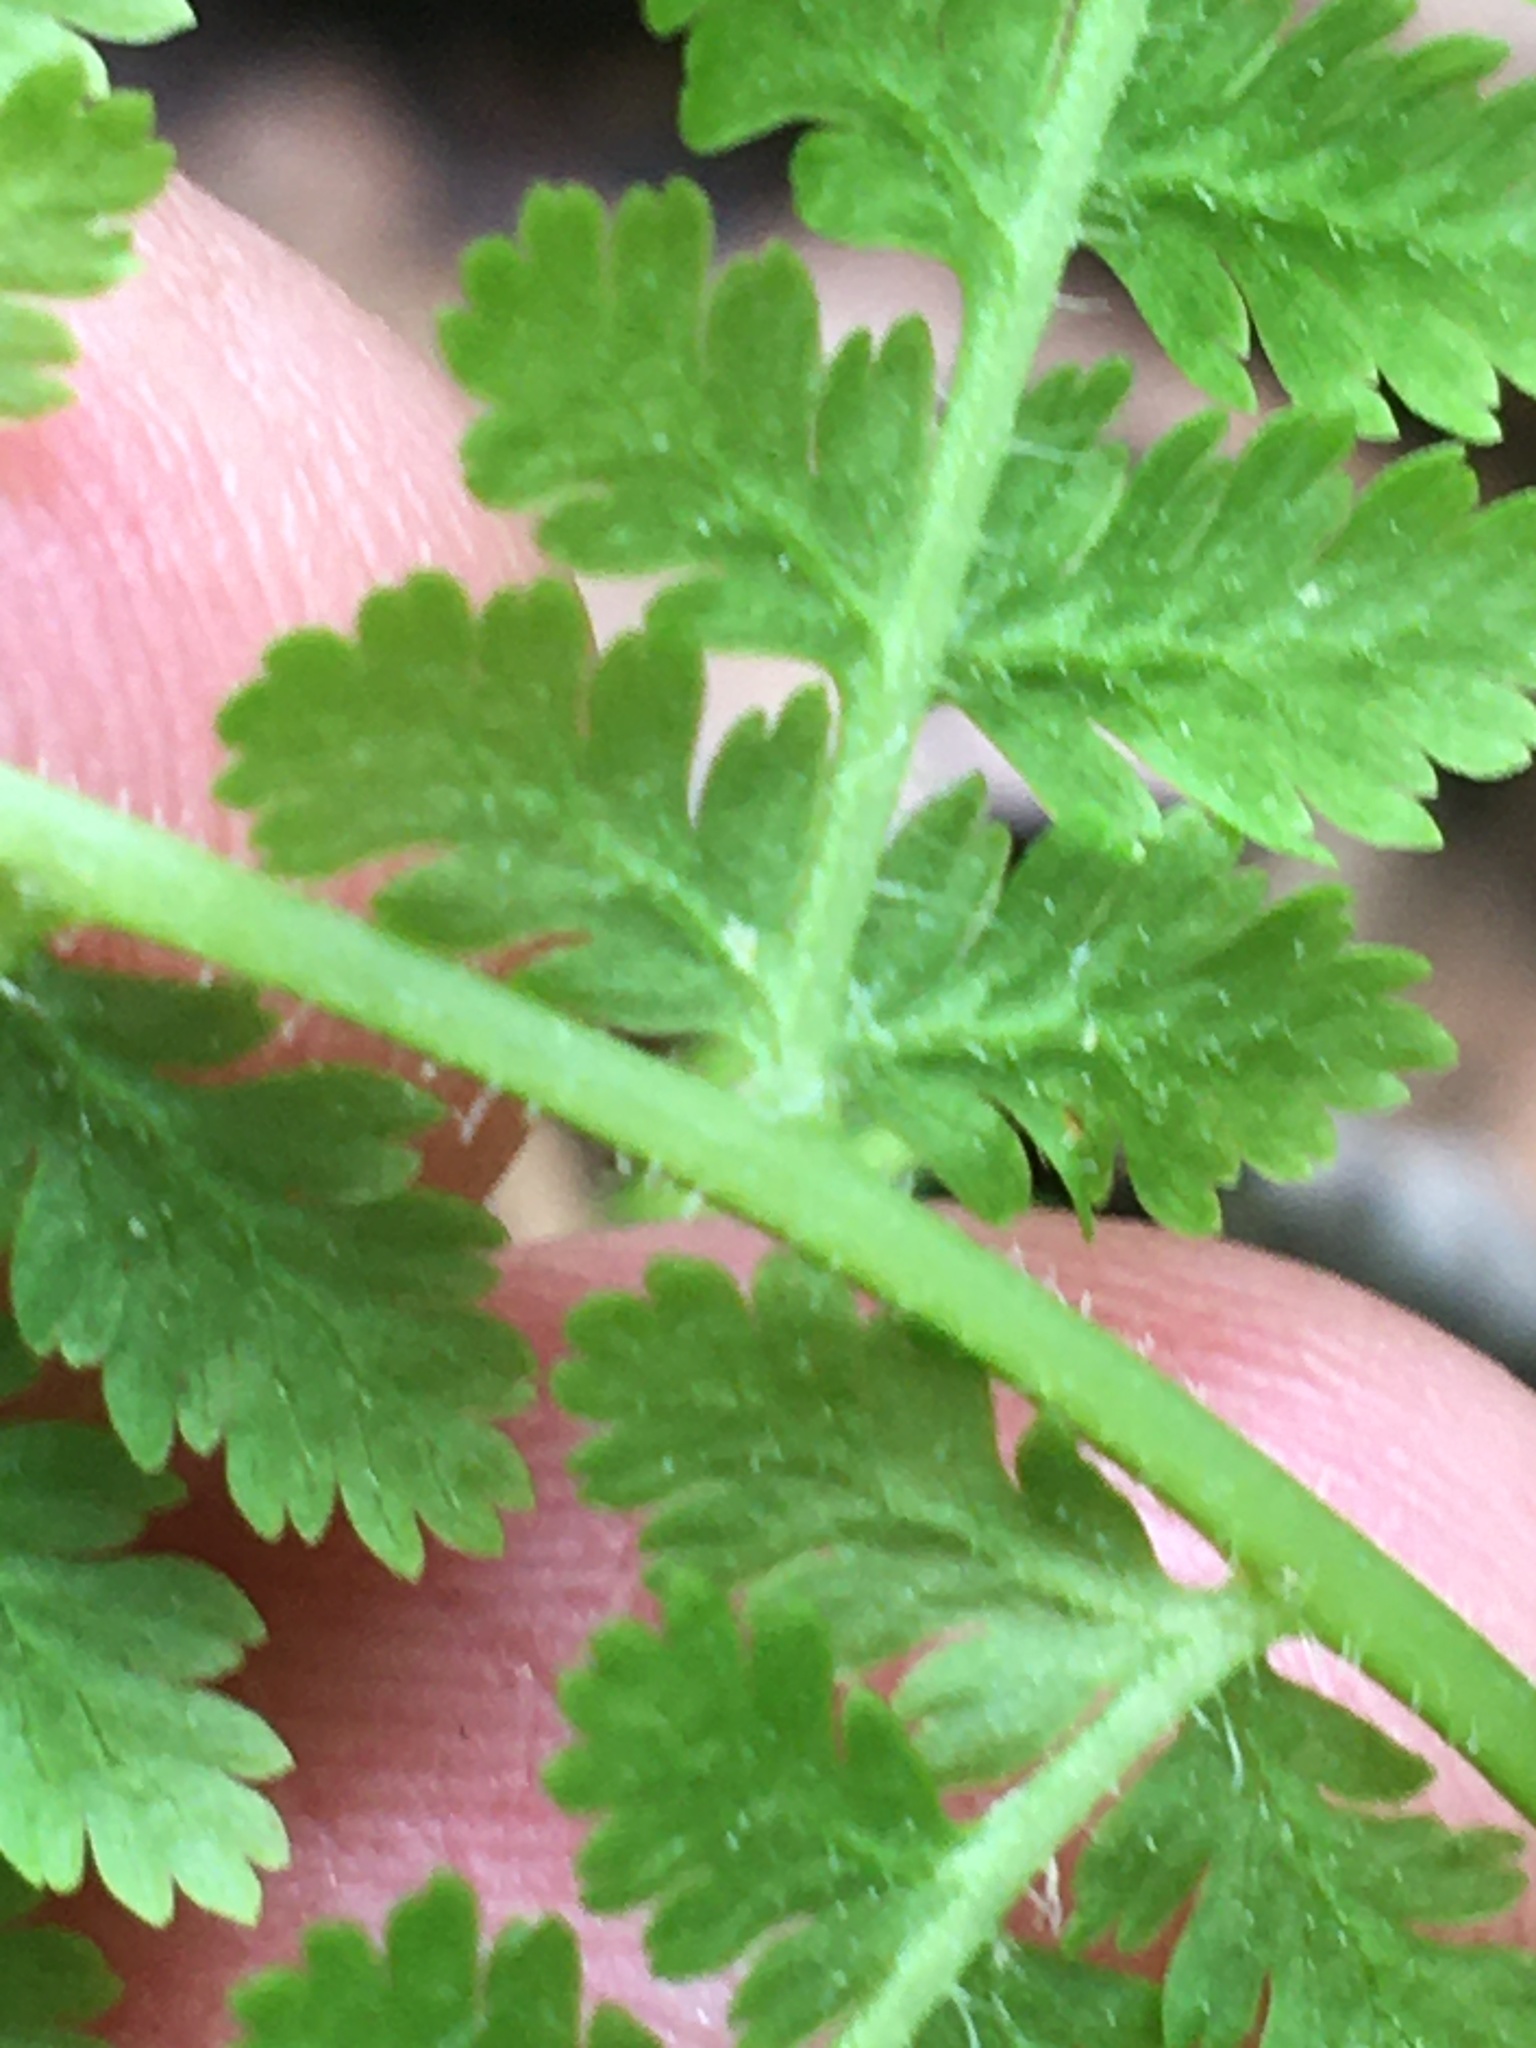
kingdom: Plantae
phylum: Tracheophyta
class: Polypodiopsida
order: Polypodiales
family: Dennstaedtiaceae
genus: Sitobolium
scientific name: Sitobolium punctilobum
